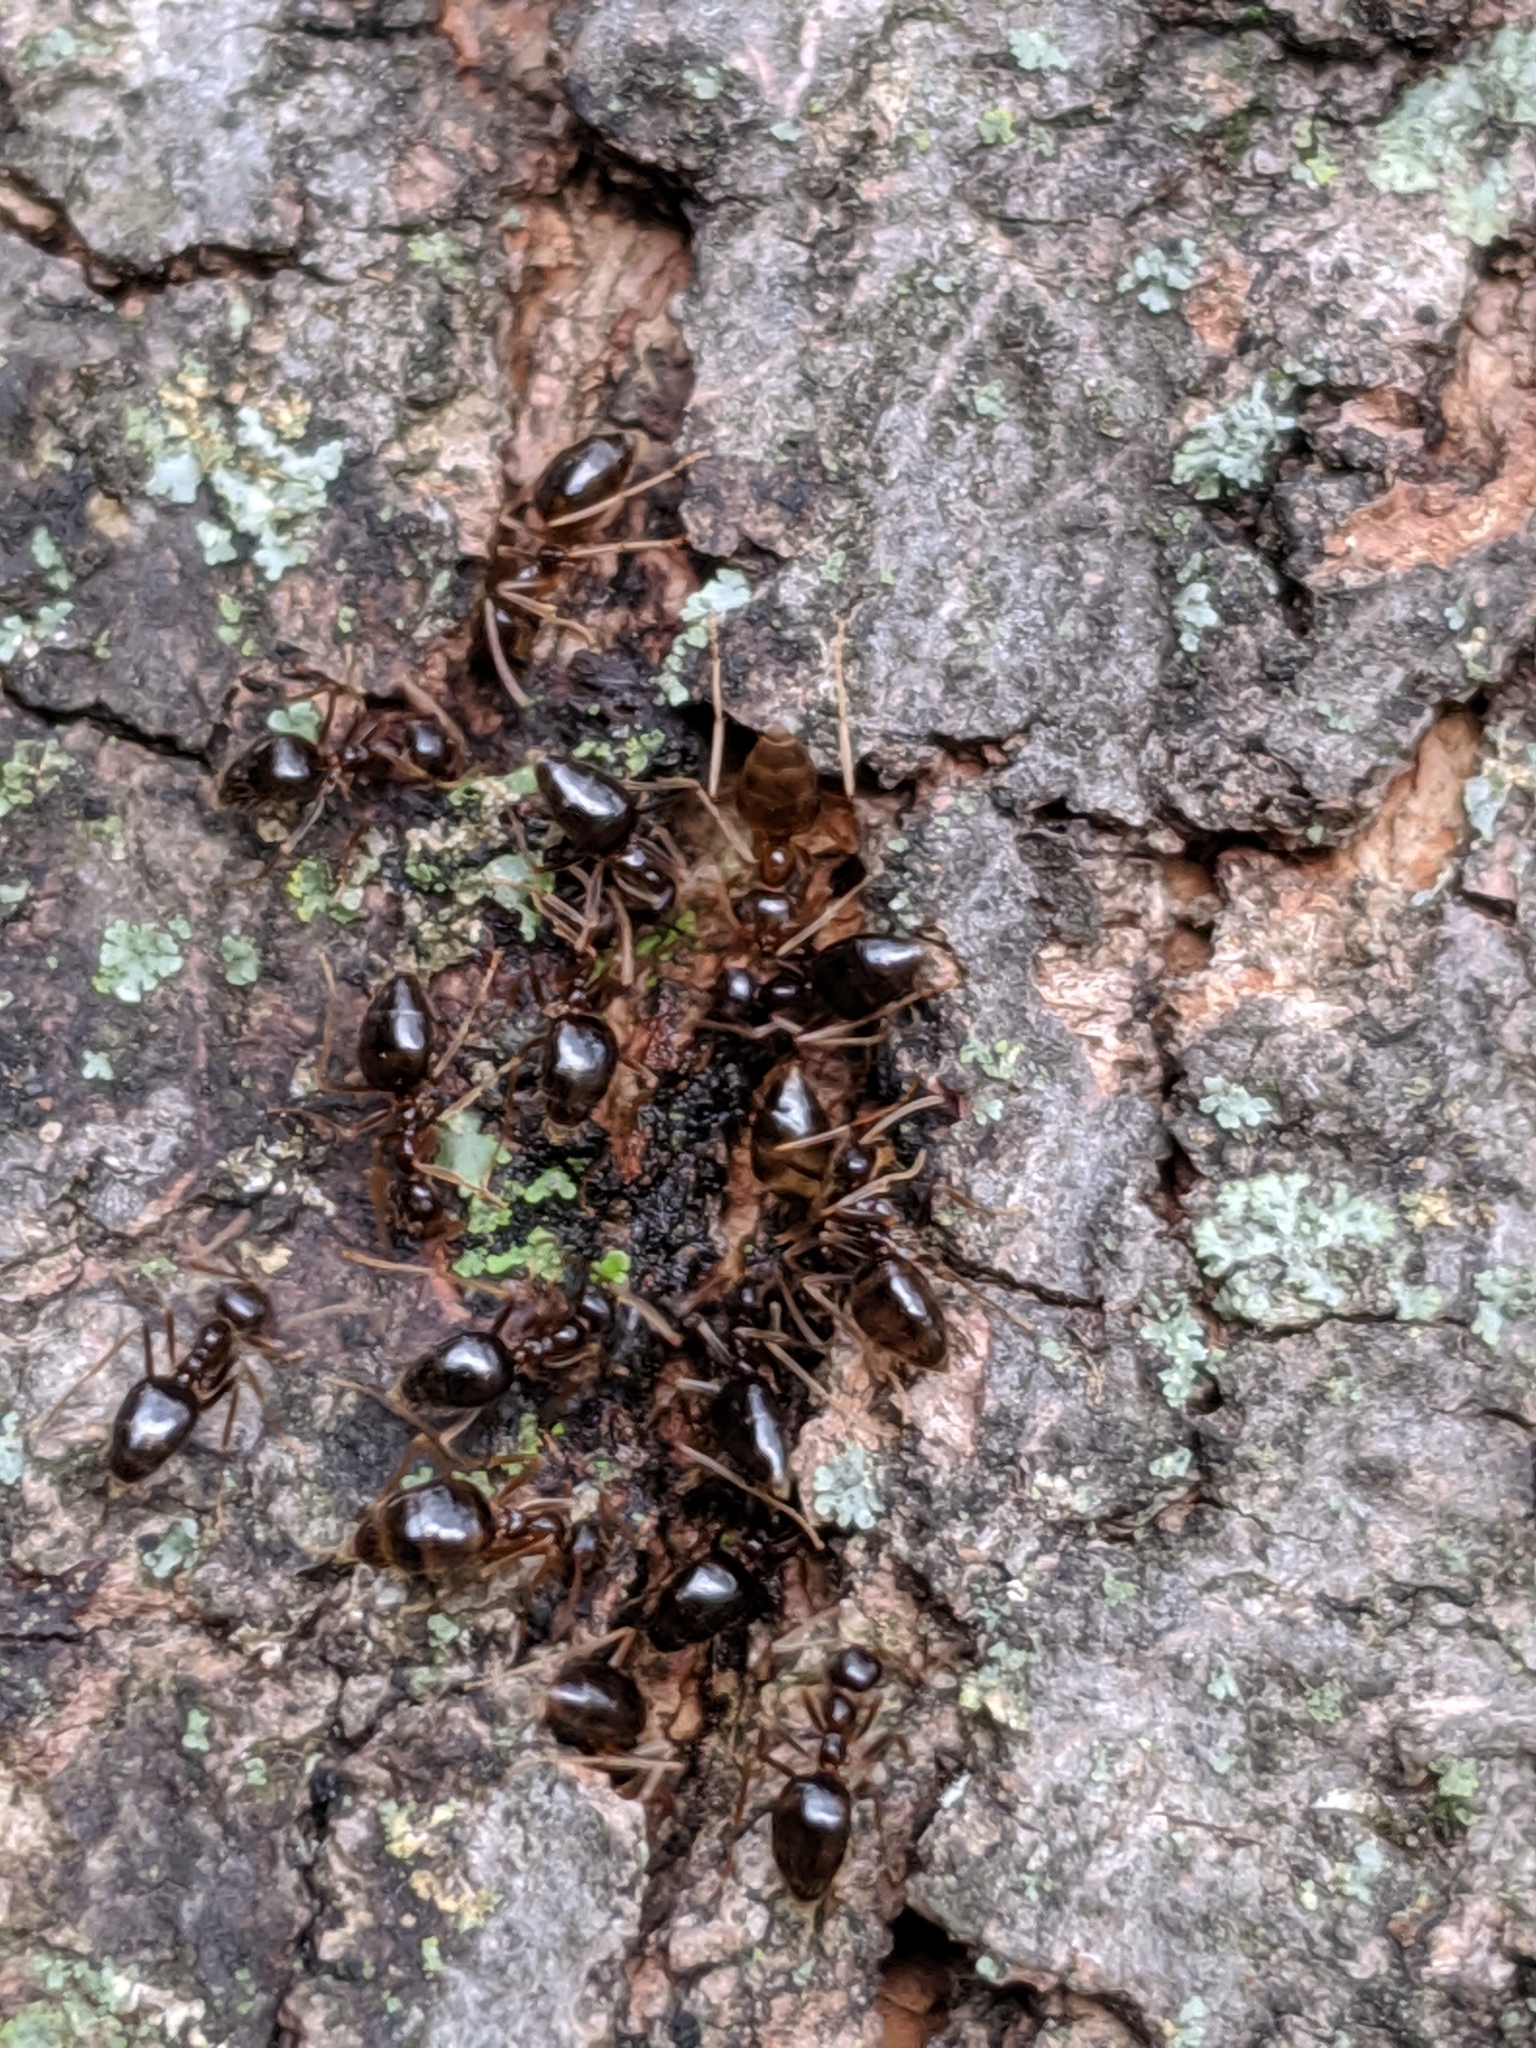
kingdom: Animalia
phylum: Arthropoda
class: Insecta
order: Hymenoptera
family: Formicidae
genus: Prenolepis
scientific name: Prenolepis imparis
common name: Small honey ant
